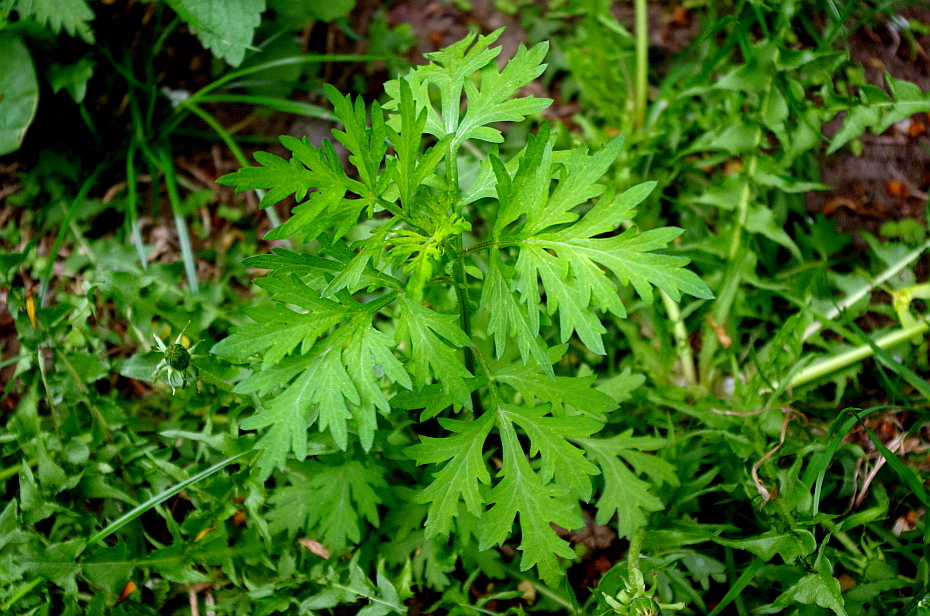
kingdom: Plantae
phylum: Tracheophyta
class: Magnoliopsida
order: Asterales
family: Asteraceae
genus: Artemisia
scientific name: Artemisia vulgaris
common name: Mugwort
